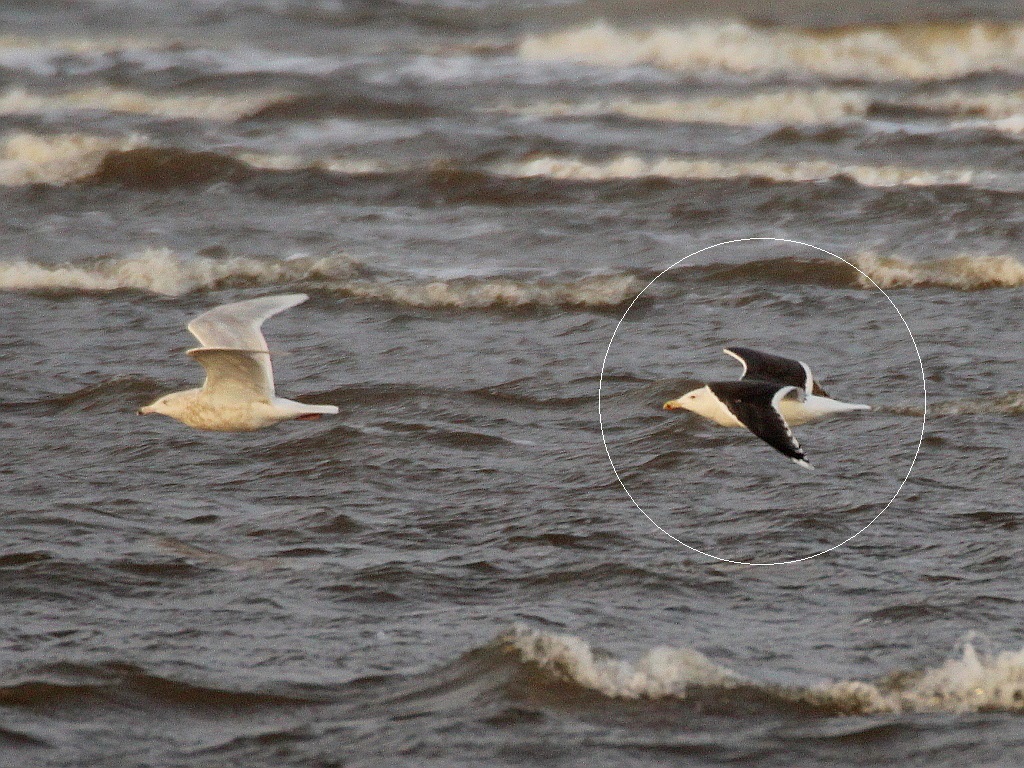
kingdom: Animalia
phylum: Chordata
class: Aves
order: Charadriiformes
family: Laridae
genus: Larus
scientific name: Larus marinus
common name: Great black-backed gull
